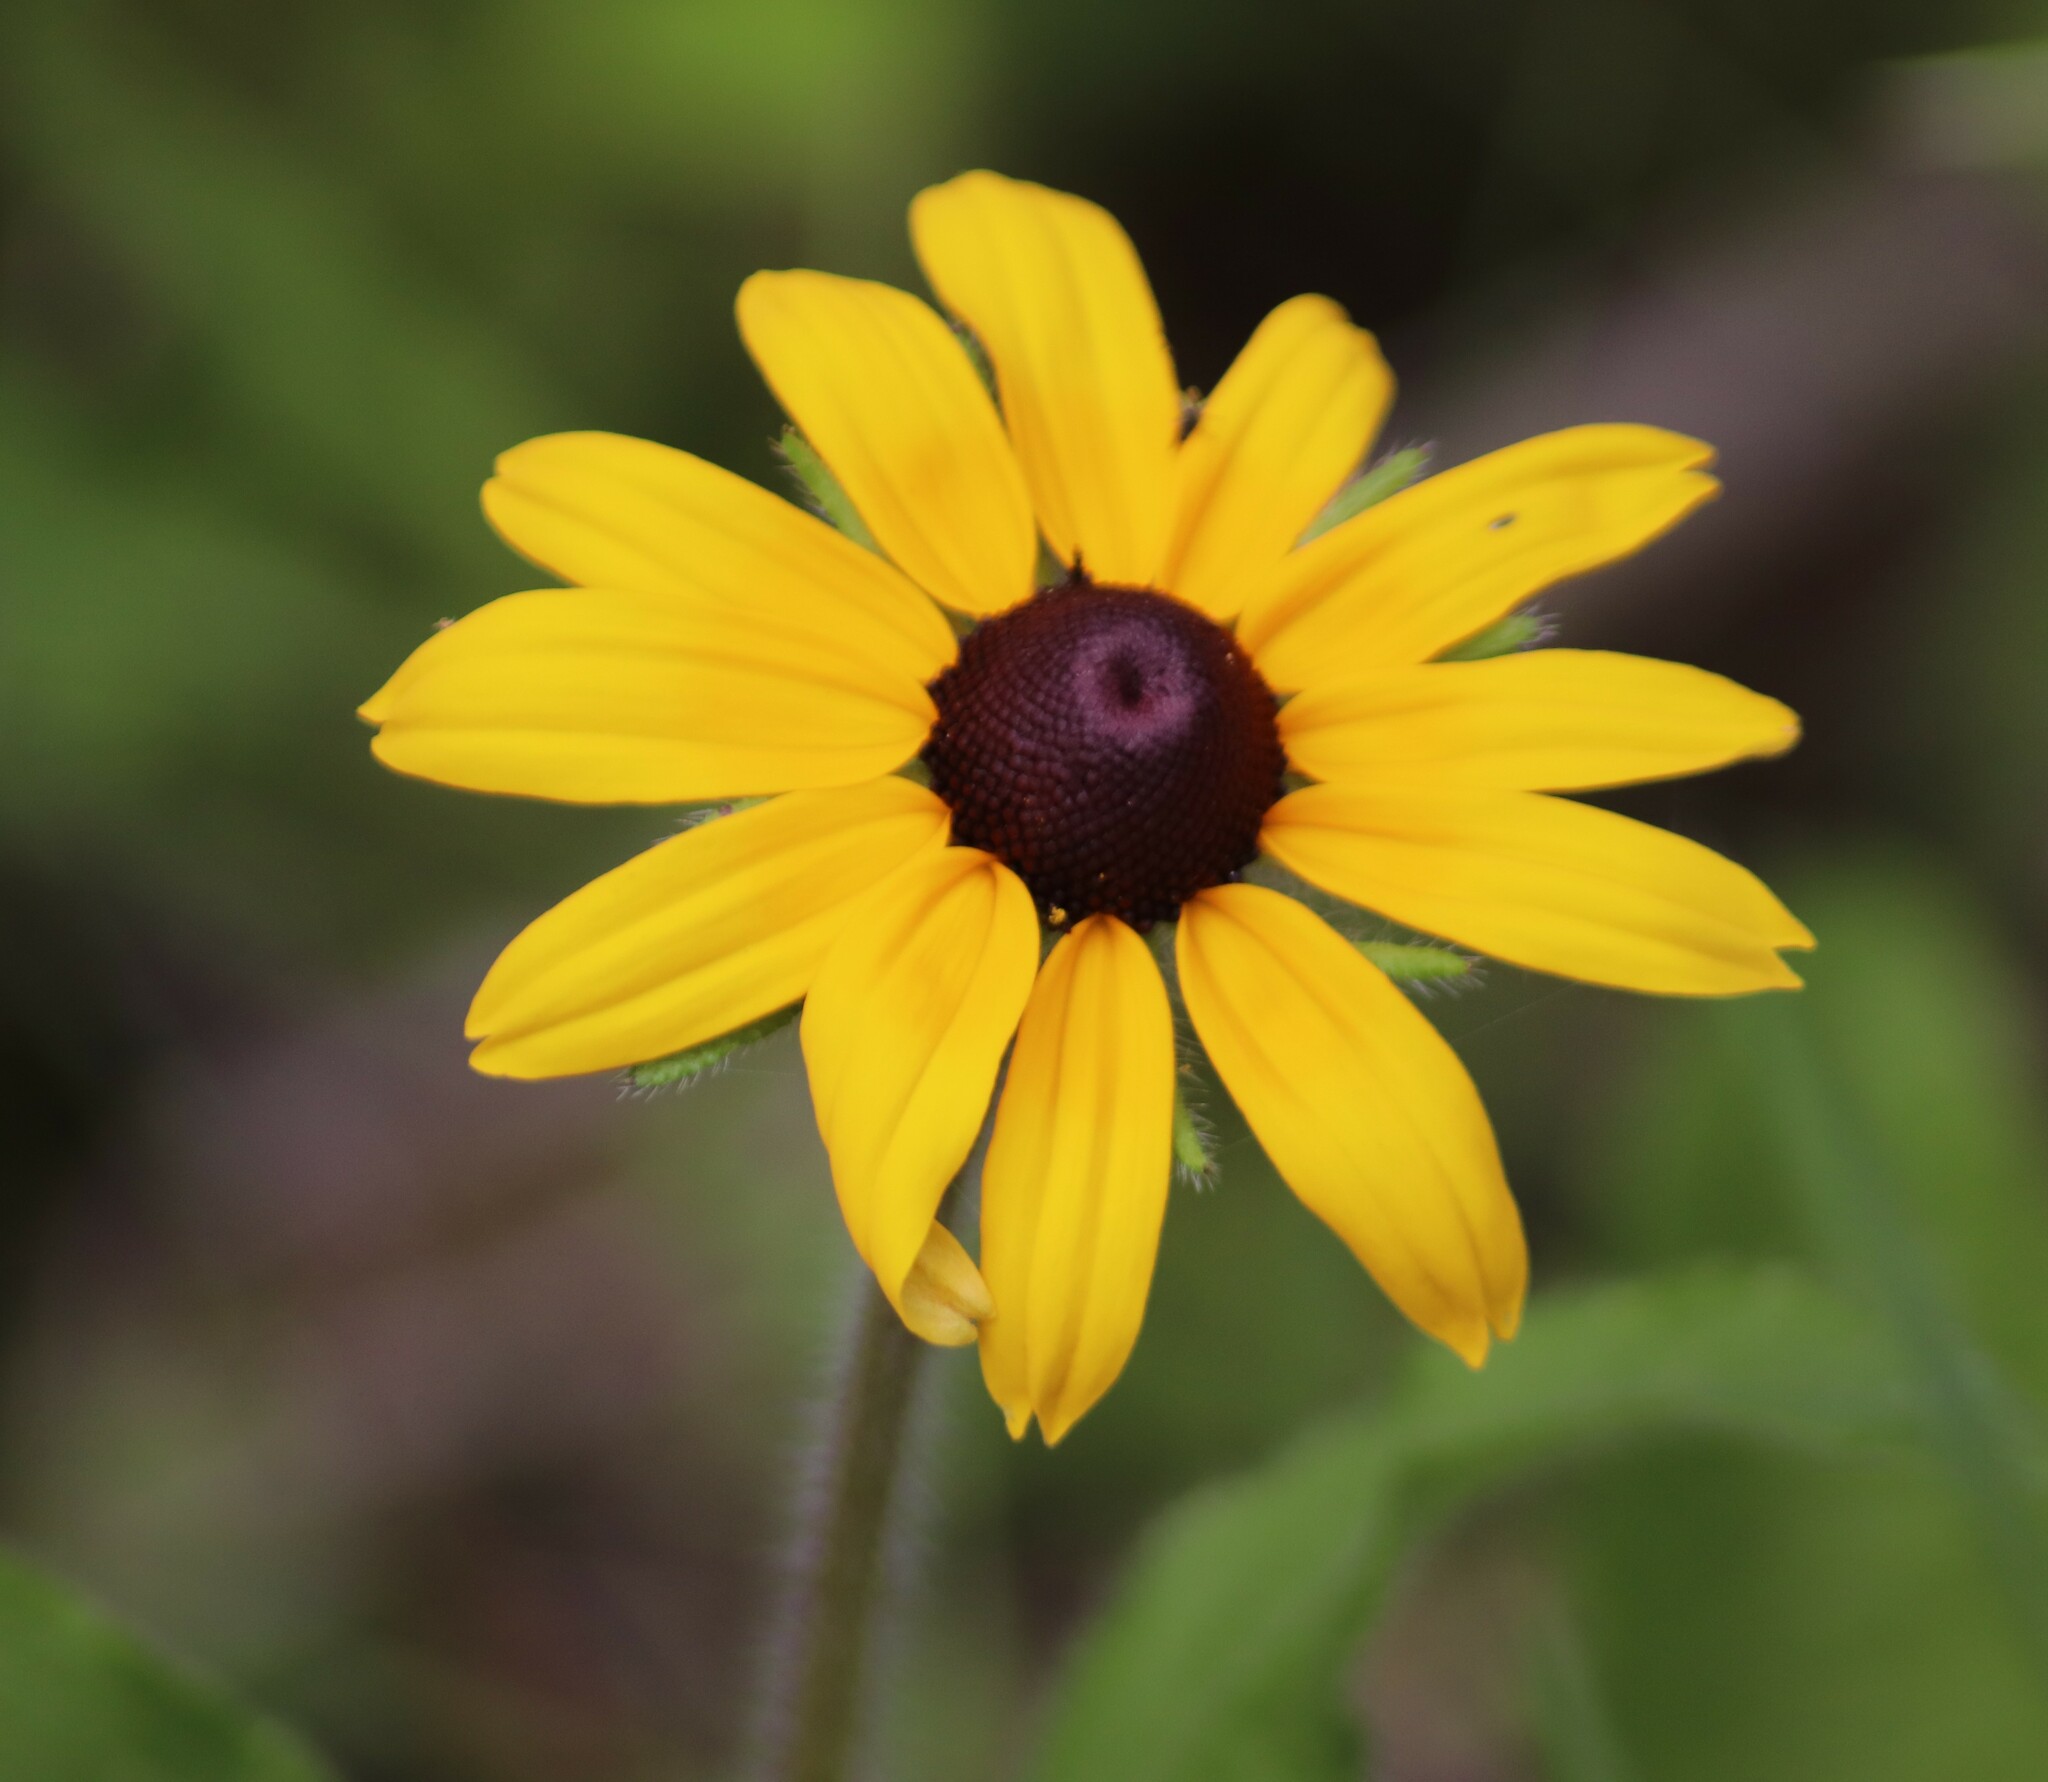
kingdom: Plantae
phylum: Tracheophyta
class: Magnoliopsida
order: Asterales
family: Asteraceae
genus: Rudbeckia
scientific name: Rudbeckia hirta
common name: Black-eyed-susan
